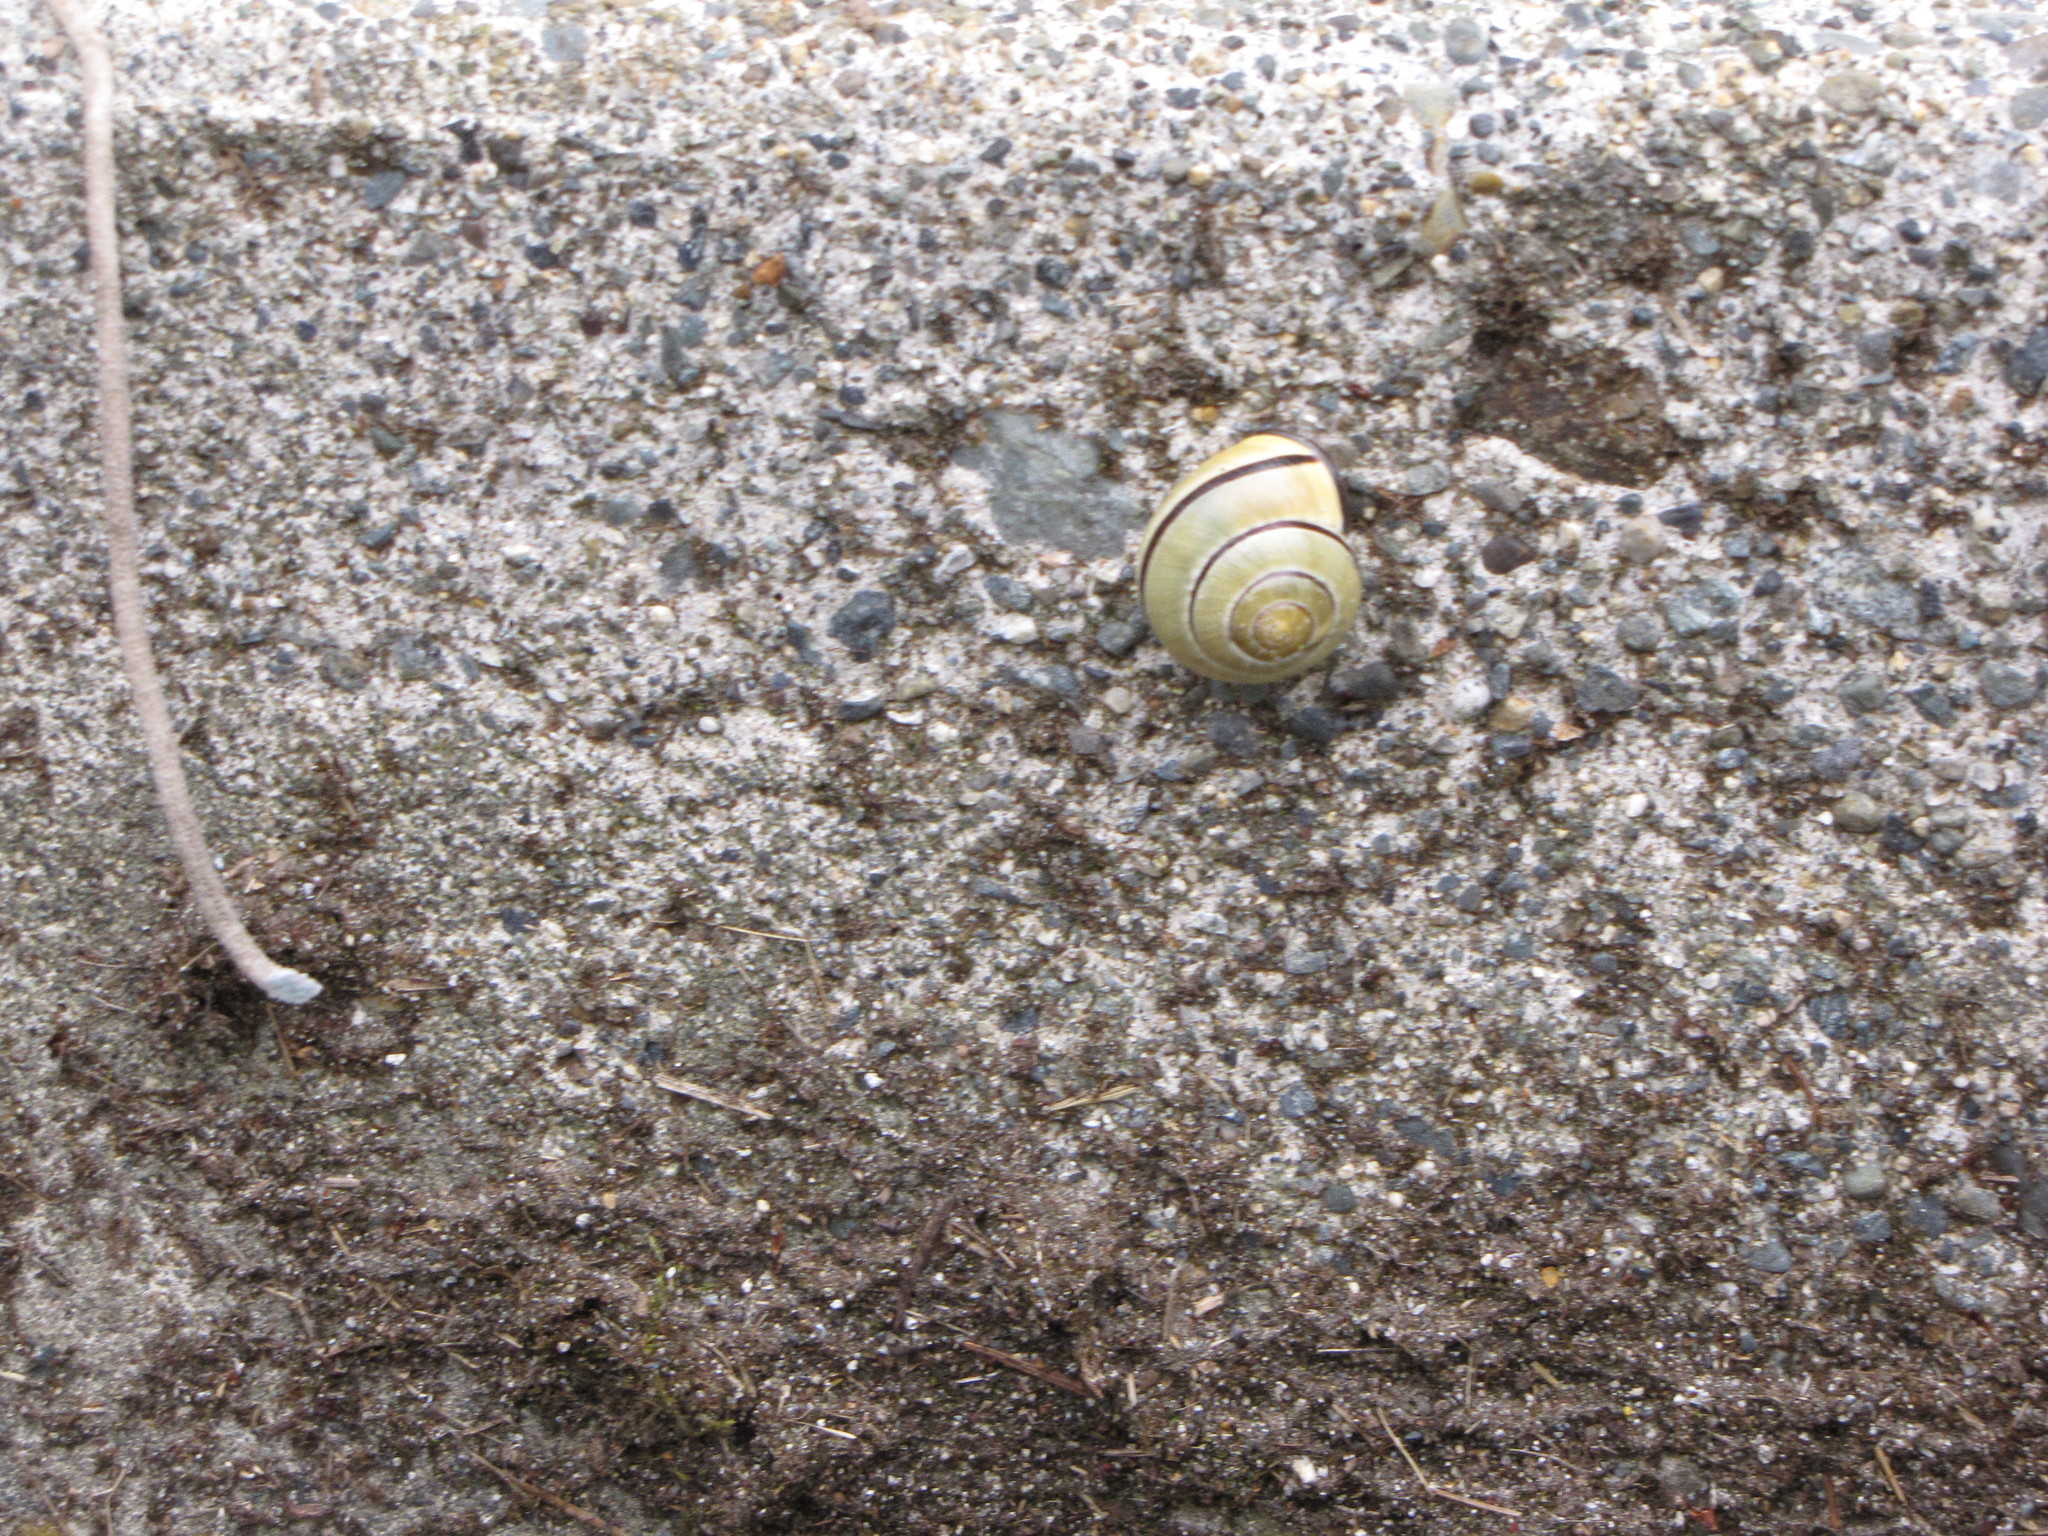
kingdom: Animalia
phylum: Mollusca
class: Gastropoda
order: Stylommatophora
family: Helicidae
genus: Cepaea
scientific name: Cepaea nemoralis
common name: Grovesnail
